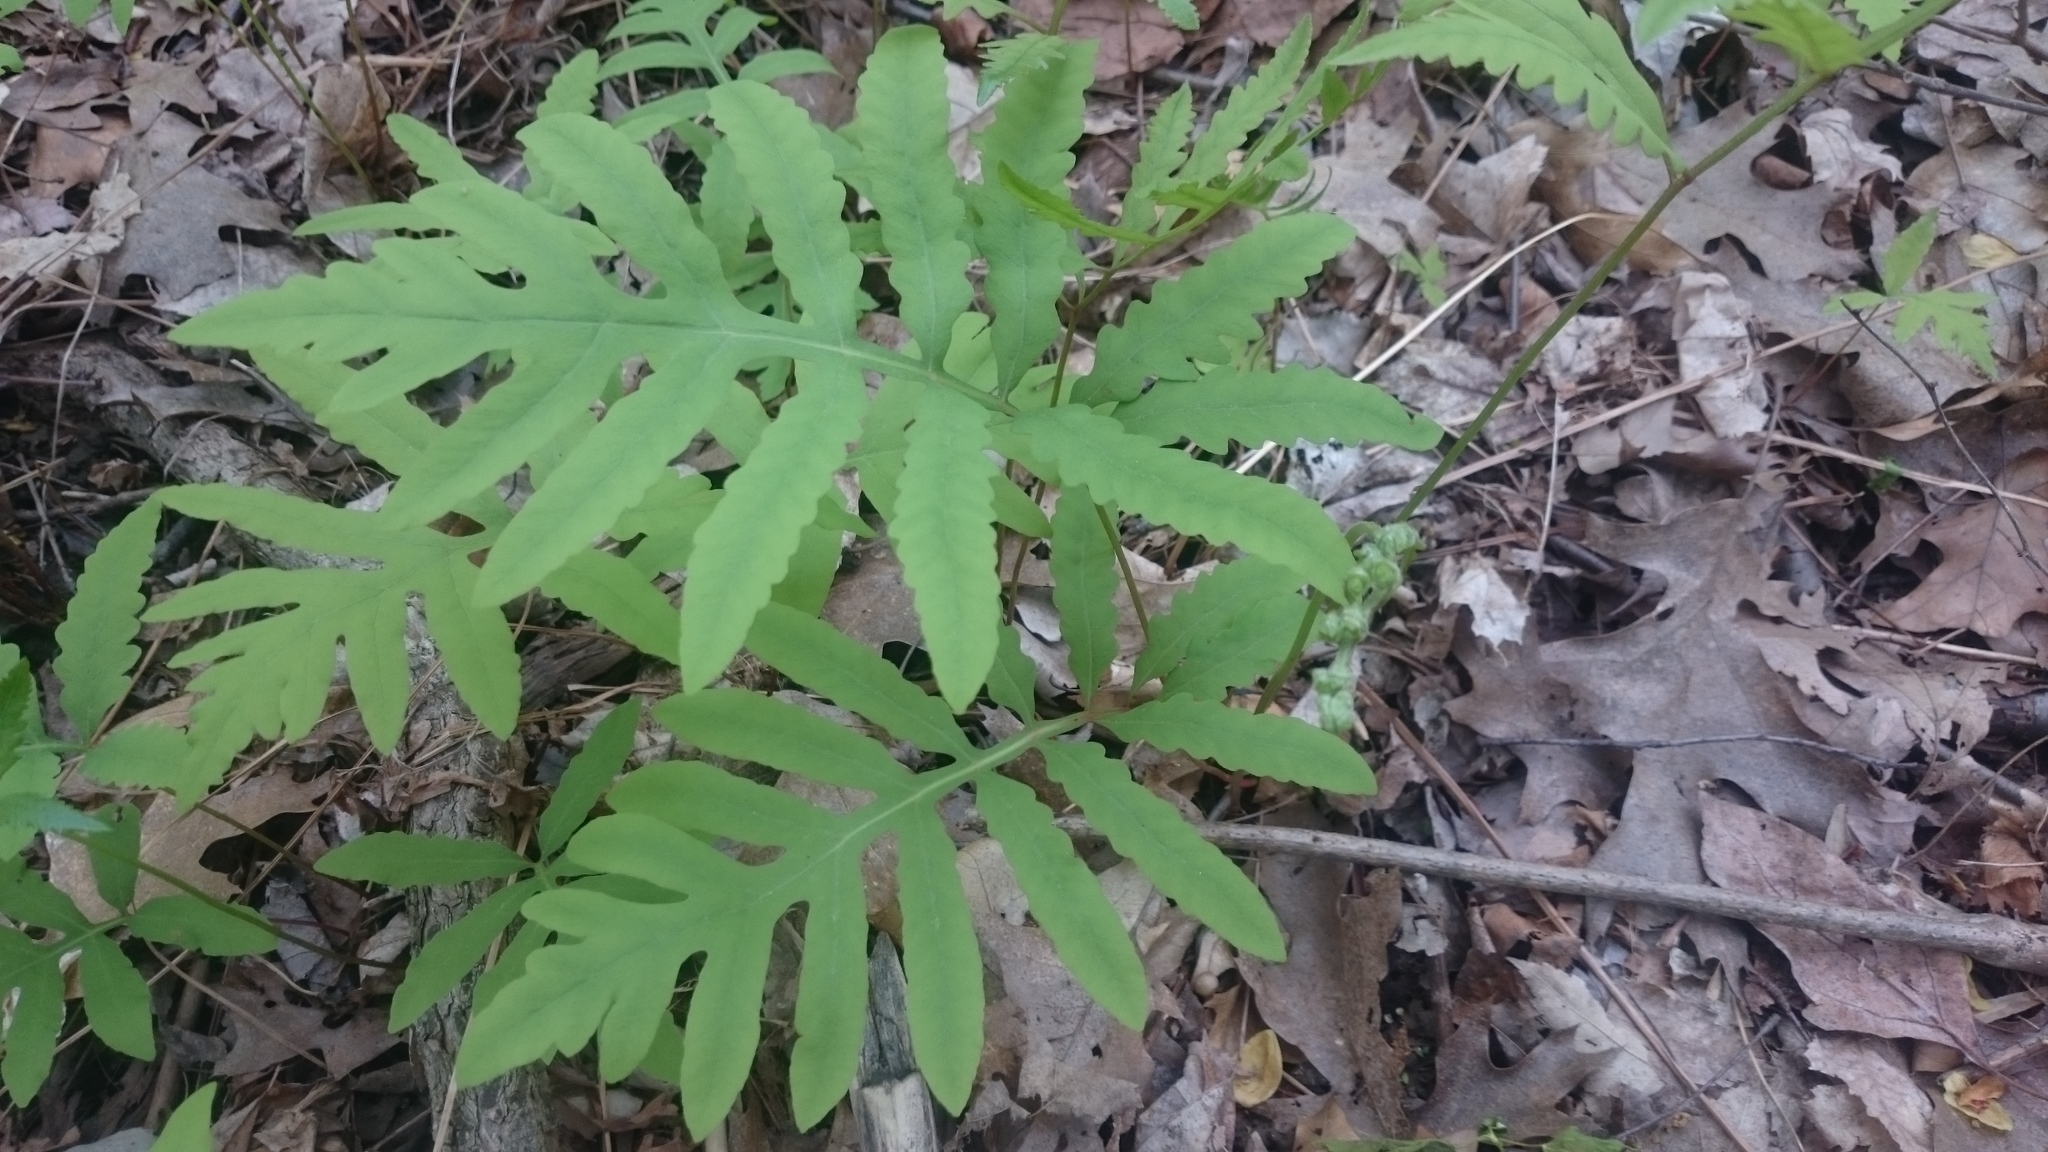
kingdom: Plantae
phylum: Tracheophyta
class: Polypodiopsida
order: Polypodiales
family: Onocleaceae
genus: Onoclea
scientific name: Onoclea sensibilis
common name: Sensitive fern
